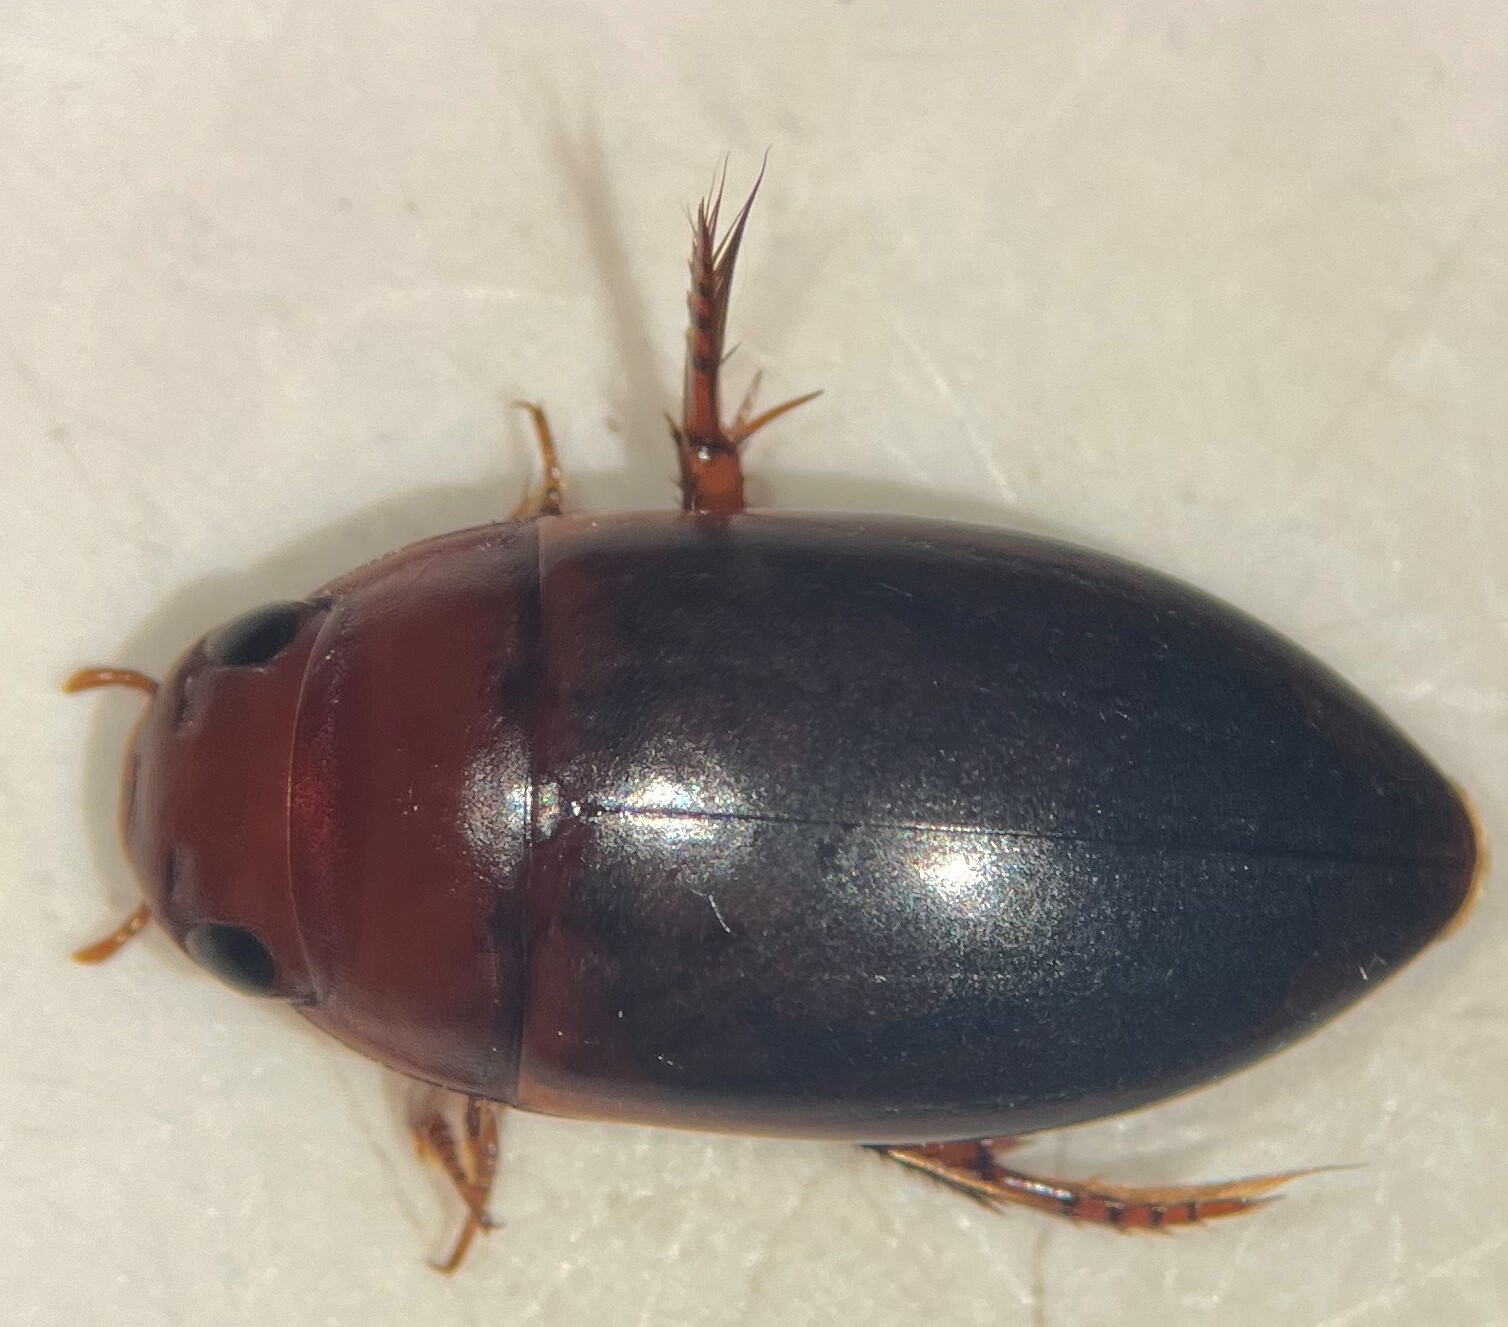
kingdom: Animalia
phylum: Arthropoda
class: Insecta
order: Coleoptera
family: Dytiscidae
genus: Matus
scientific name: Matus ovatus
